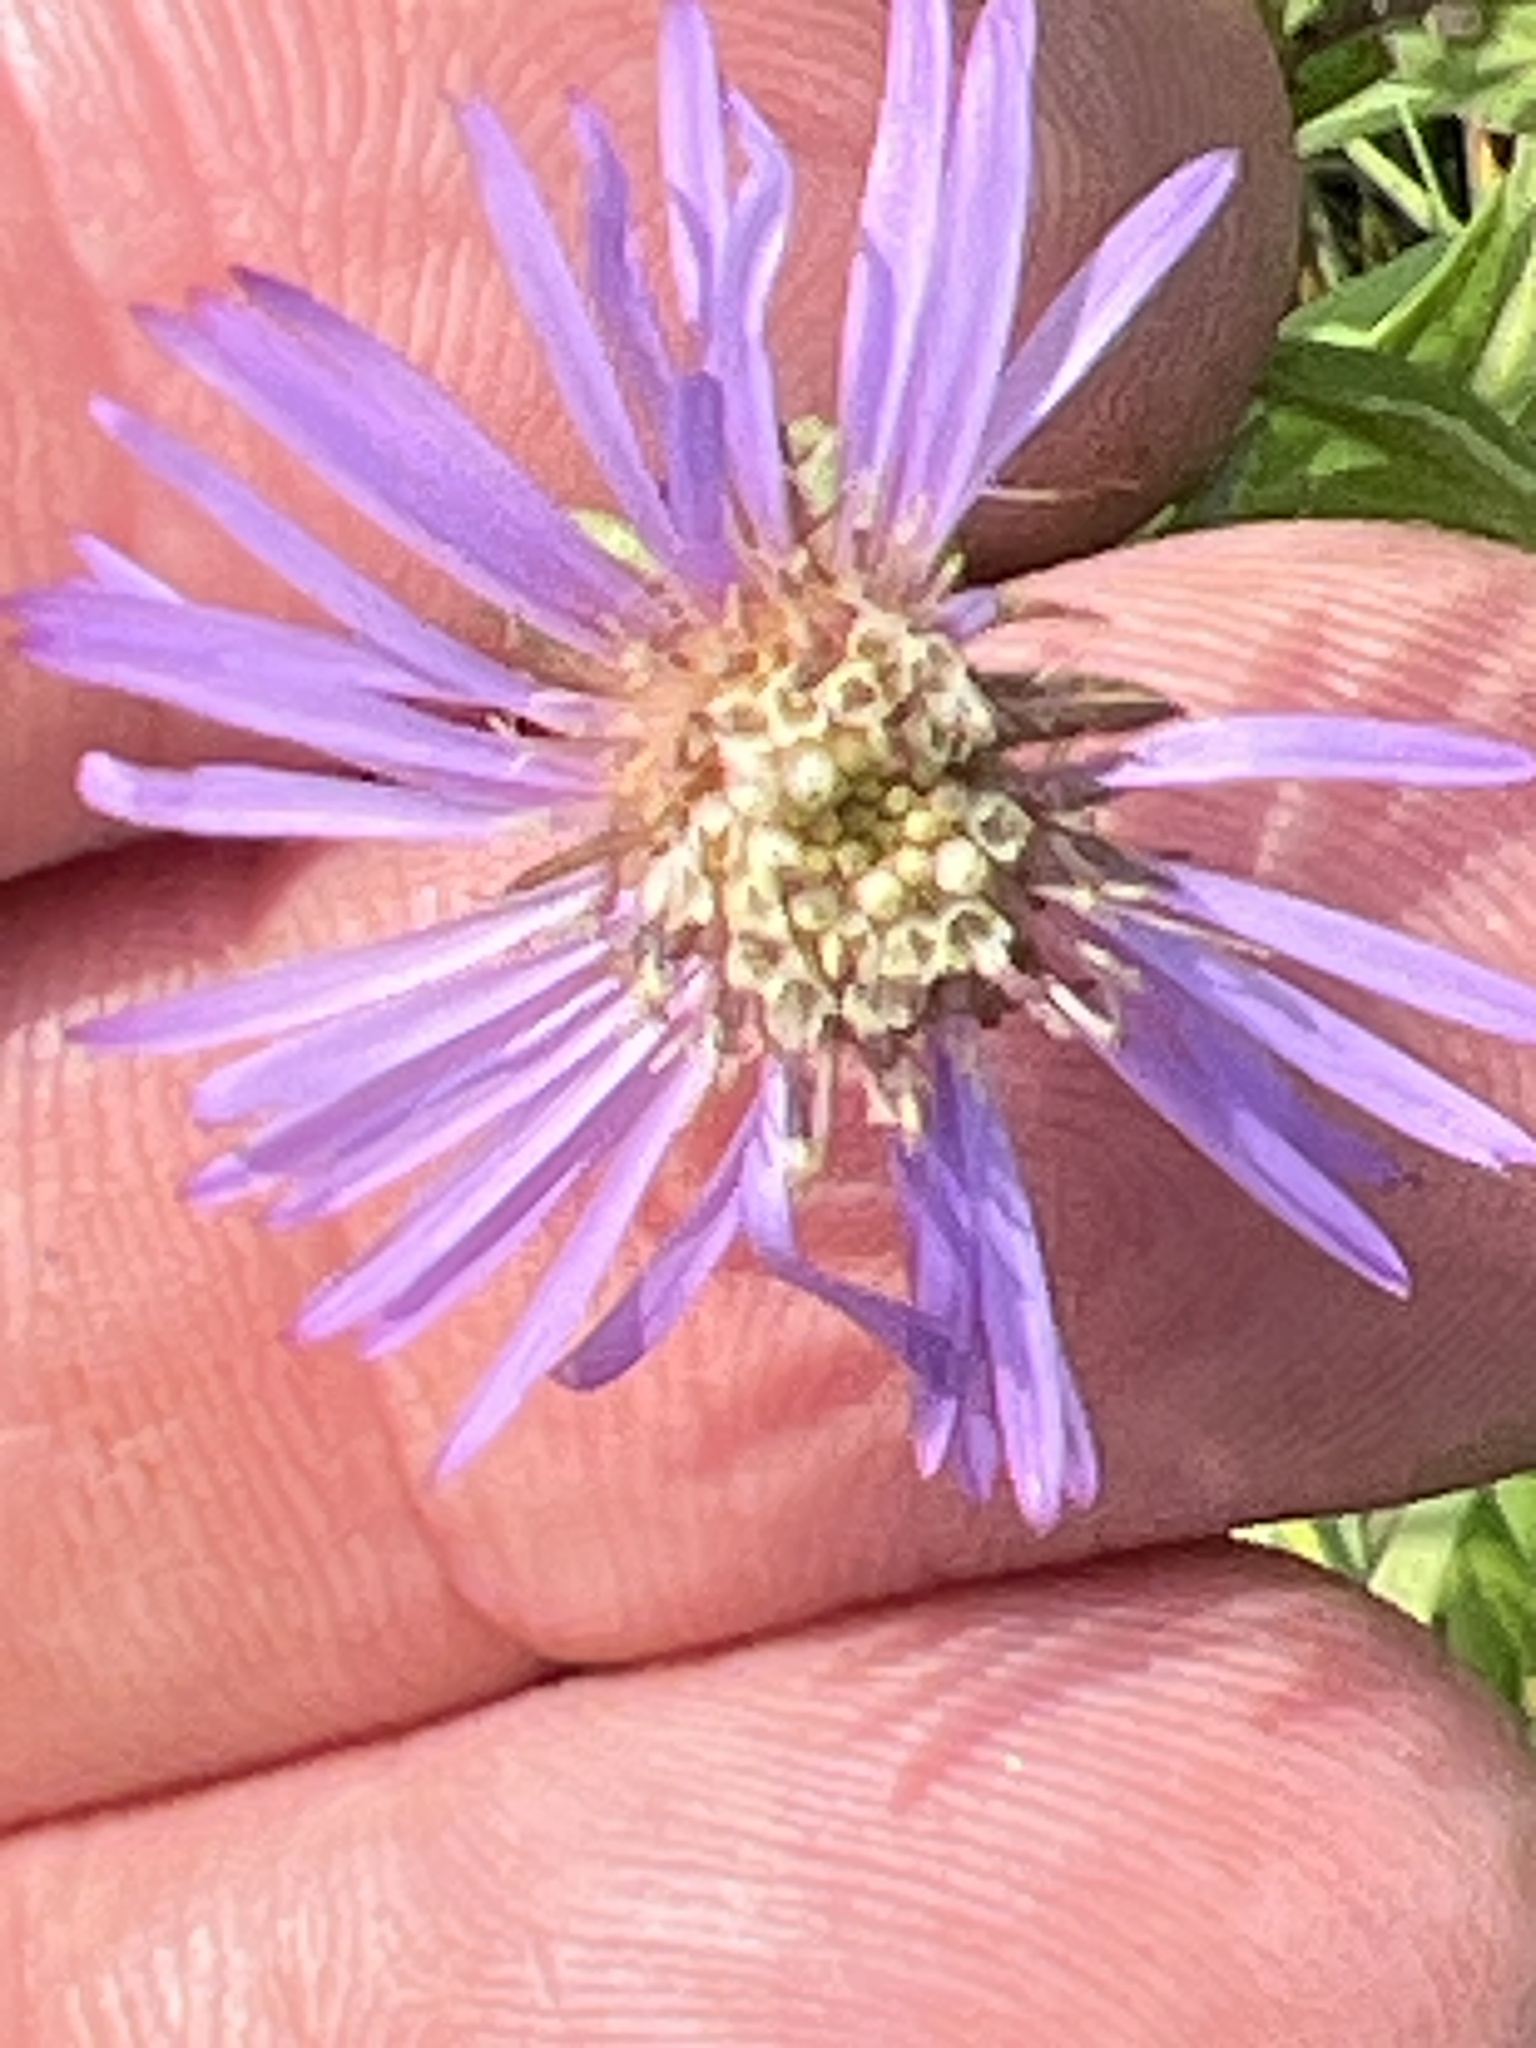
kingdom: Plantae
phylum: Tracheophyta
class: Magnoliopsida
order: Asterales
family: Asteraceae
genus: Canadanthus
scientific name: Canadanthus modestus
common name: Great northern aster
